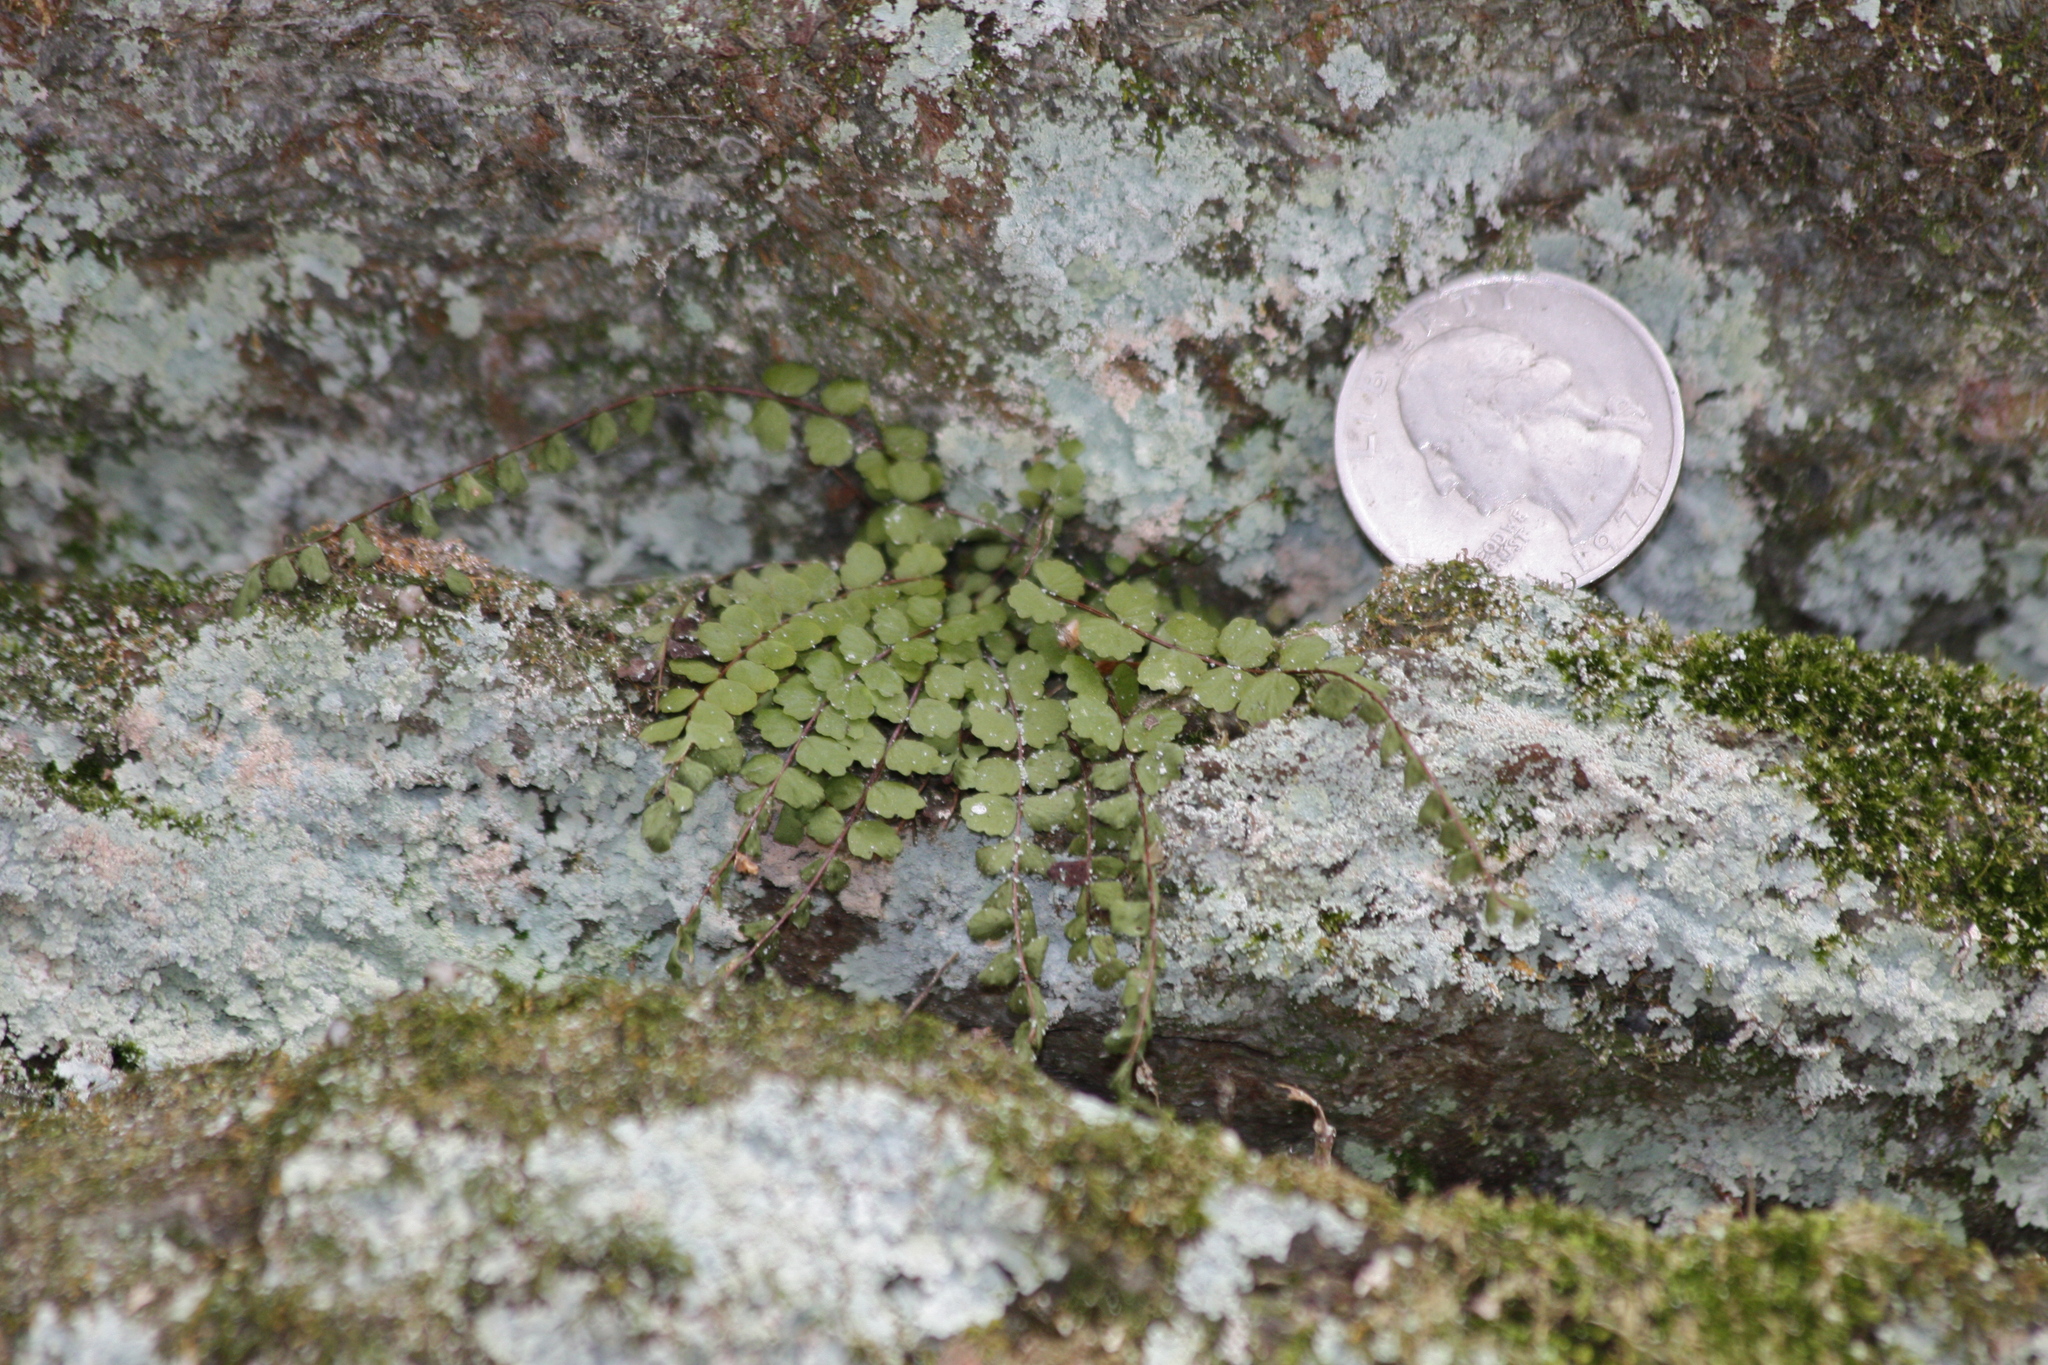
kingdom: Plantae
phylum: Tracheophyta
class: Polypodiopsida
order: Polypodiales
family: Aspleniaceae
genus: Asplenium
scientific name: Asplenium trichomanes
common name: Maidenhair spleenwort
